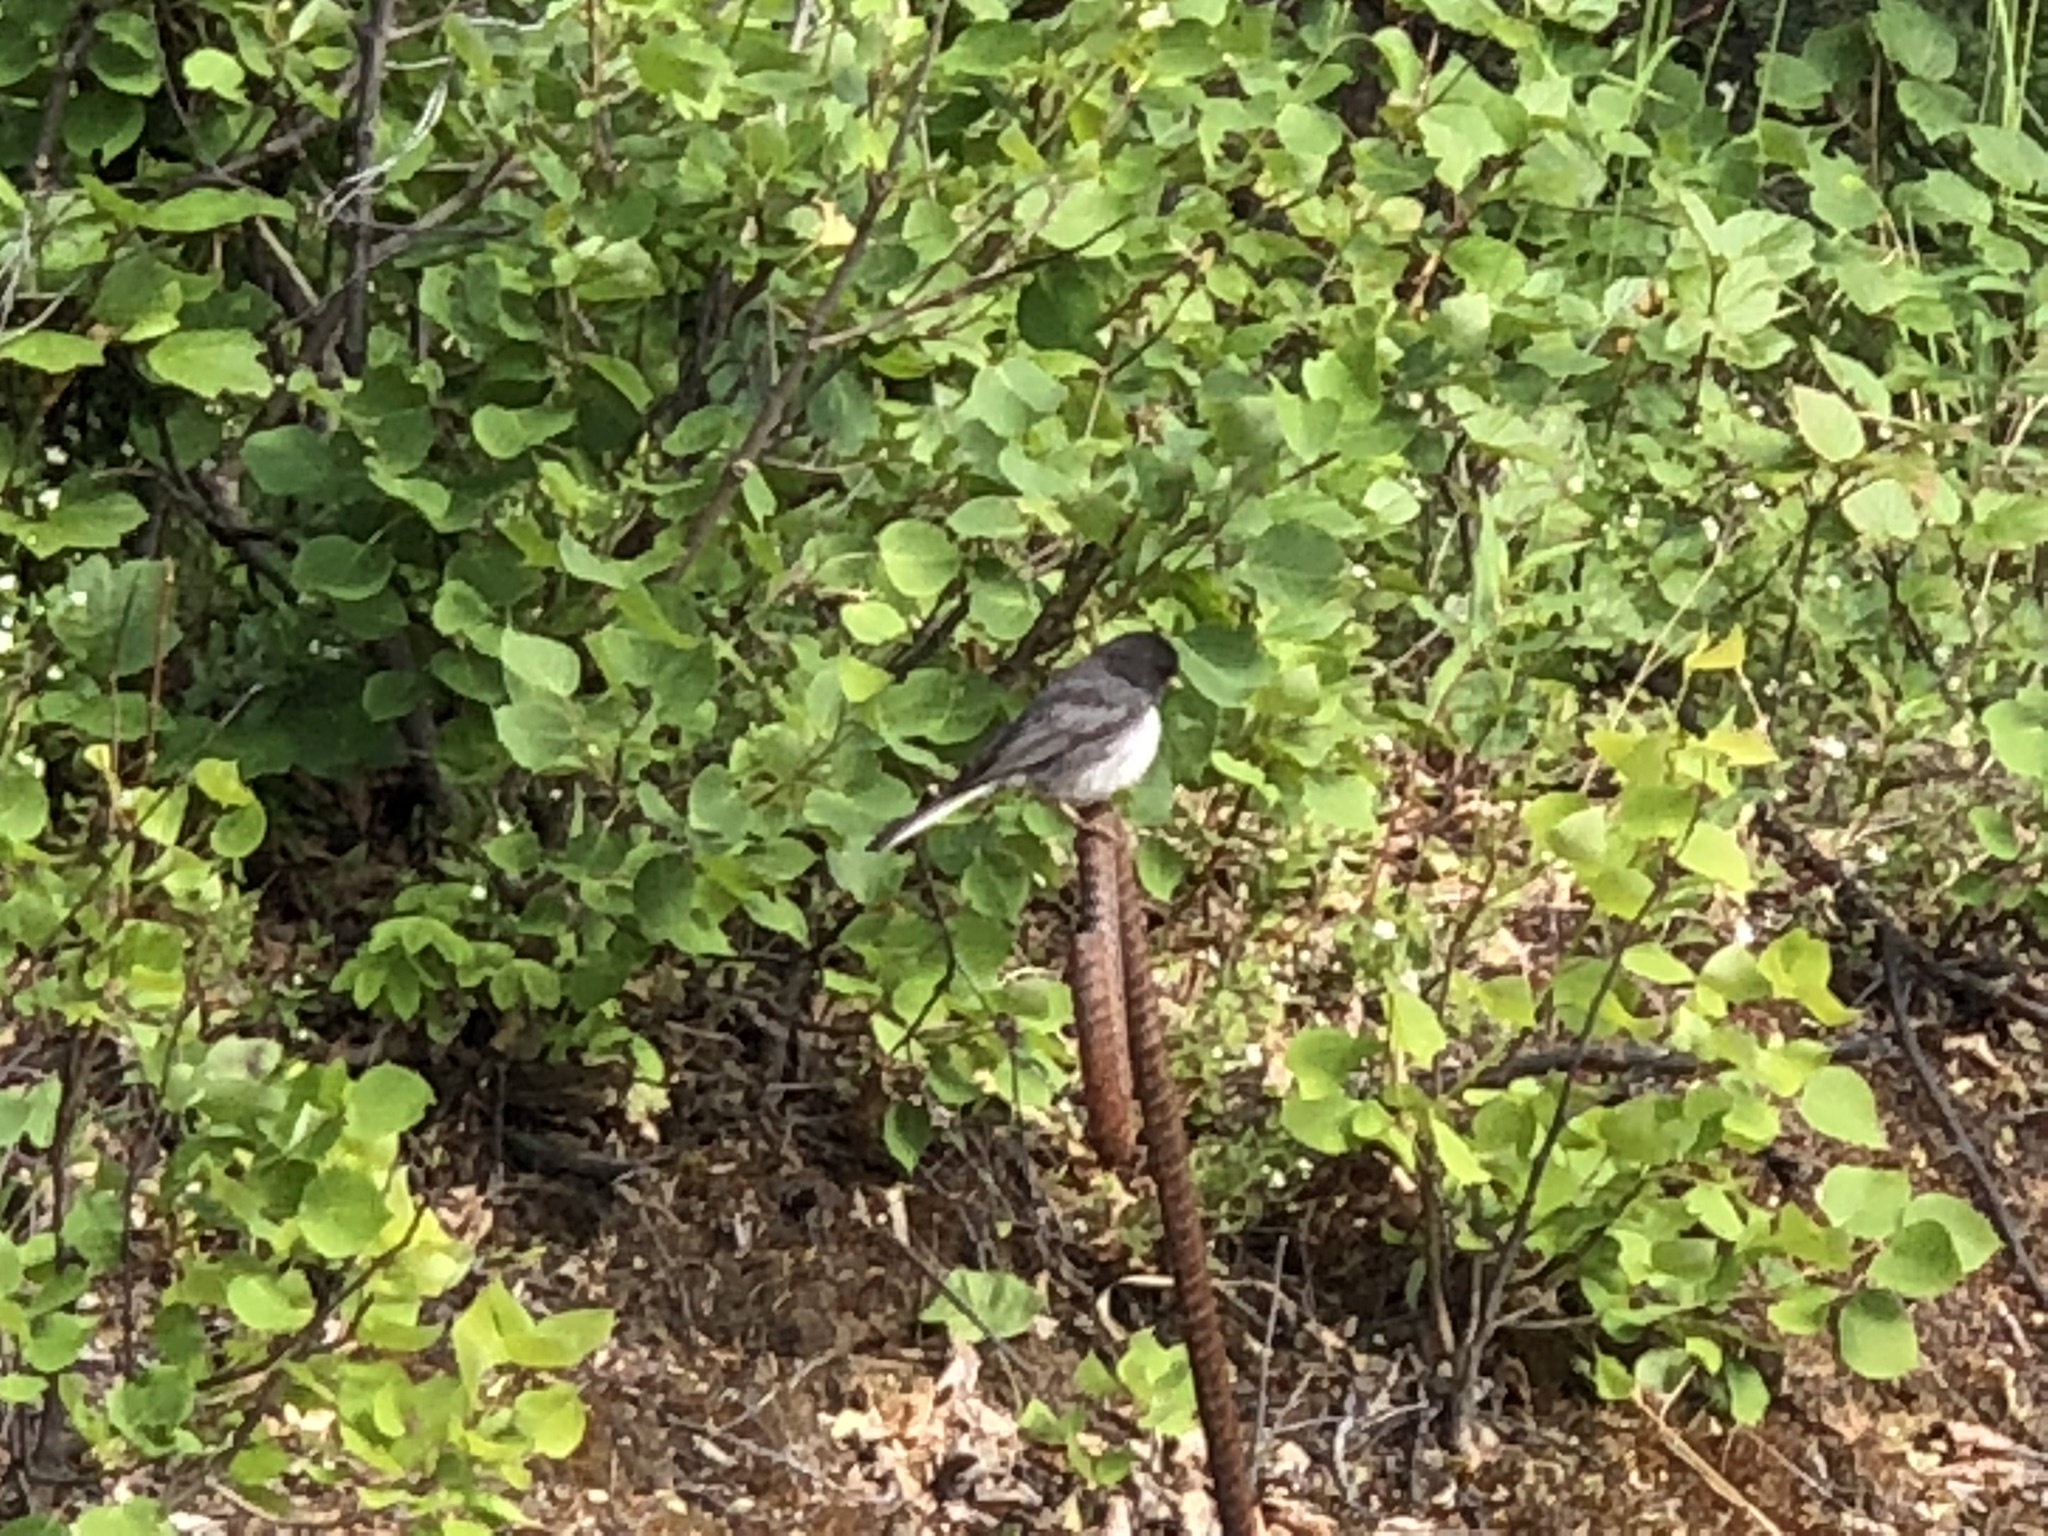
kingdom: Animalia
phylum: Chordata
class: Aves
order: Passeriformes
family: Passerellidae
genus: Junco
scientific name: Junco hyemalis
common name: Dark-eyed junco
